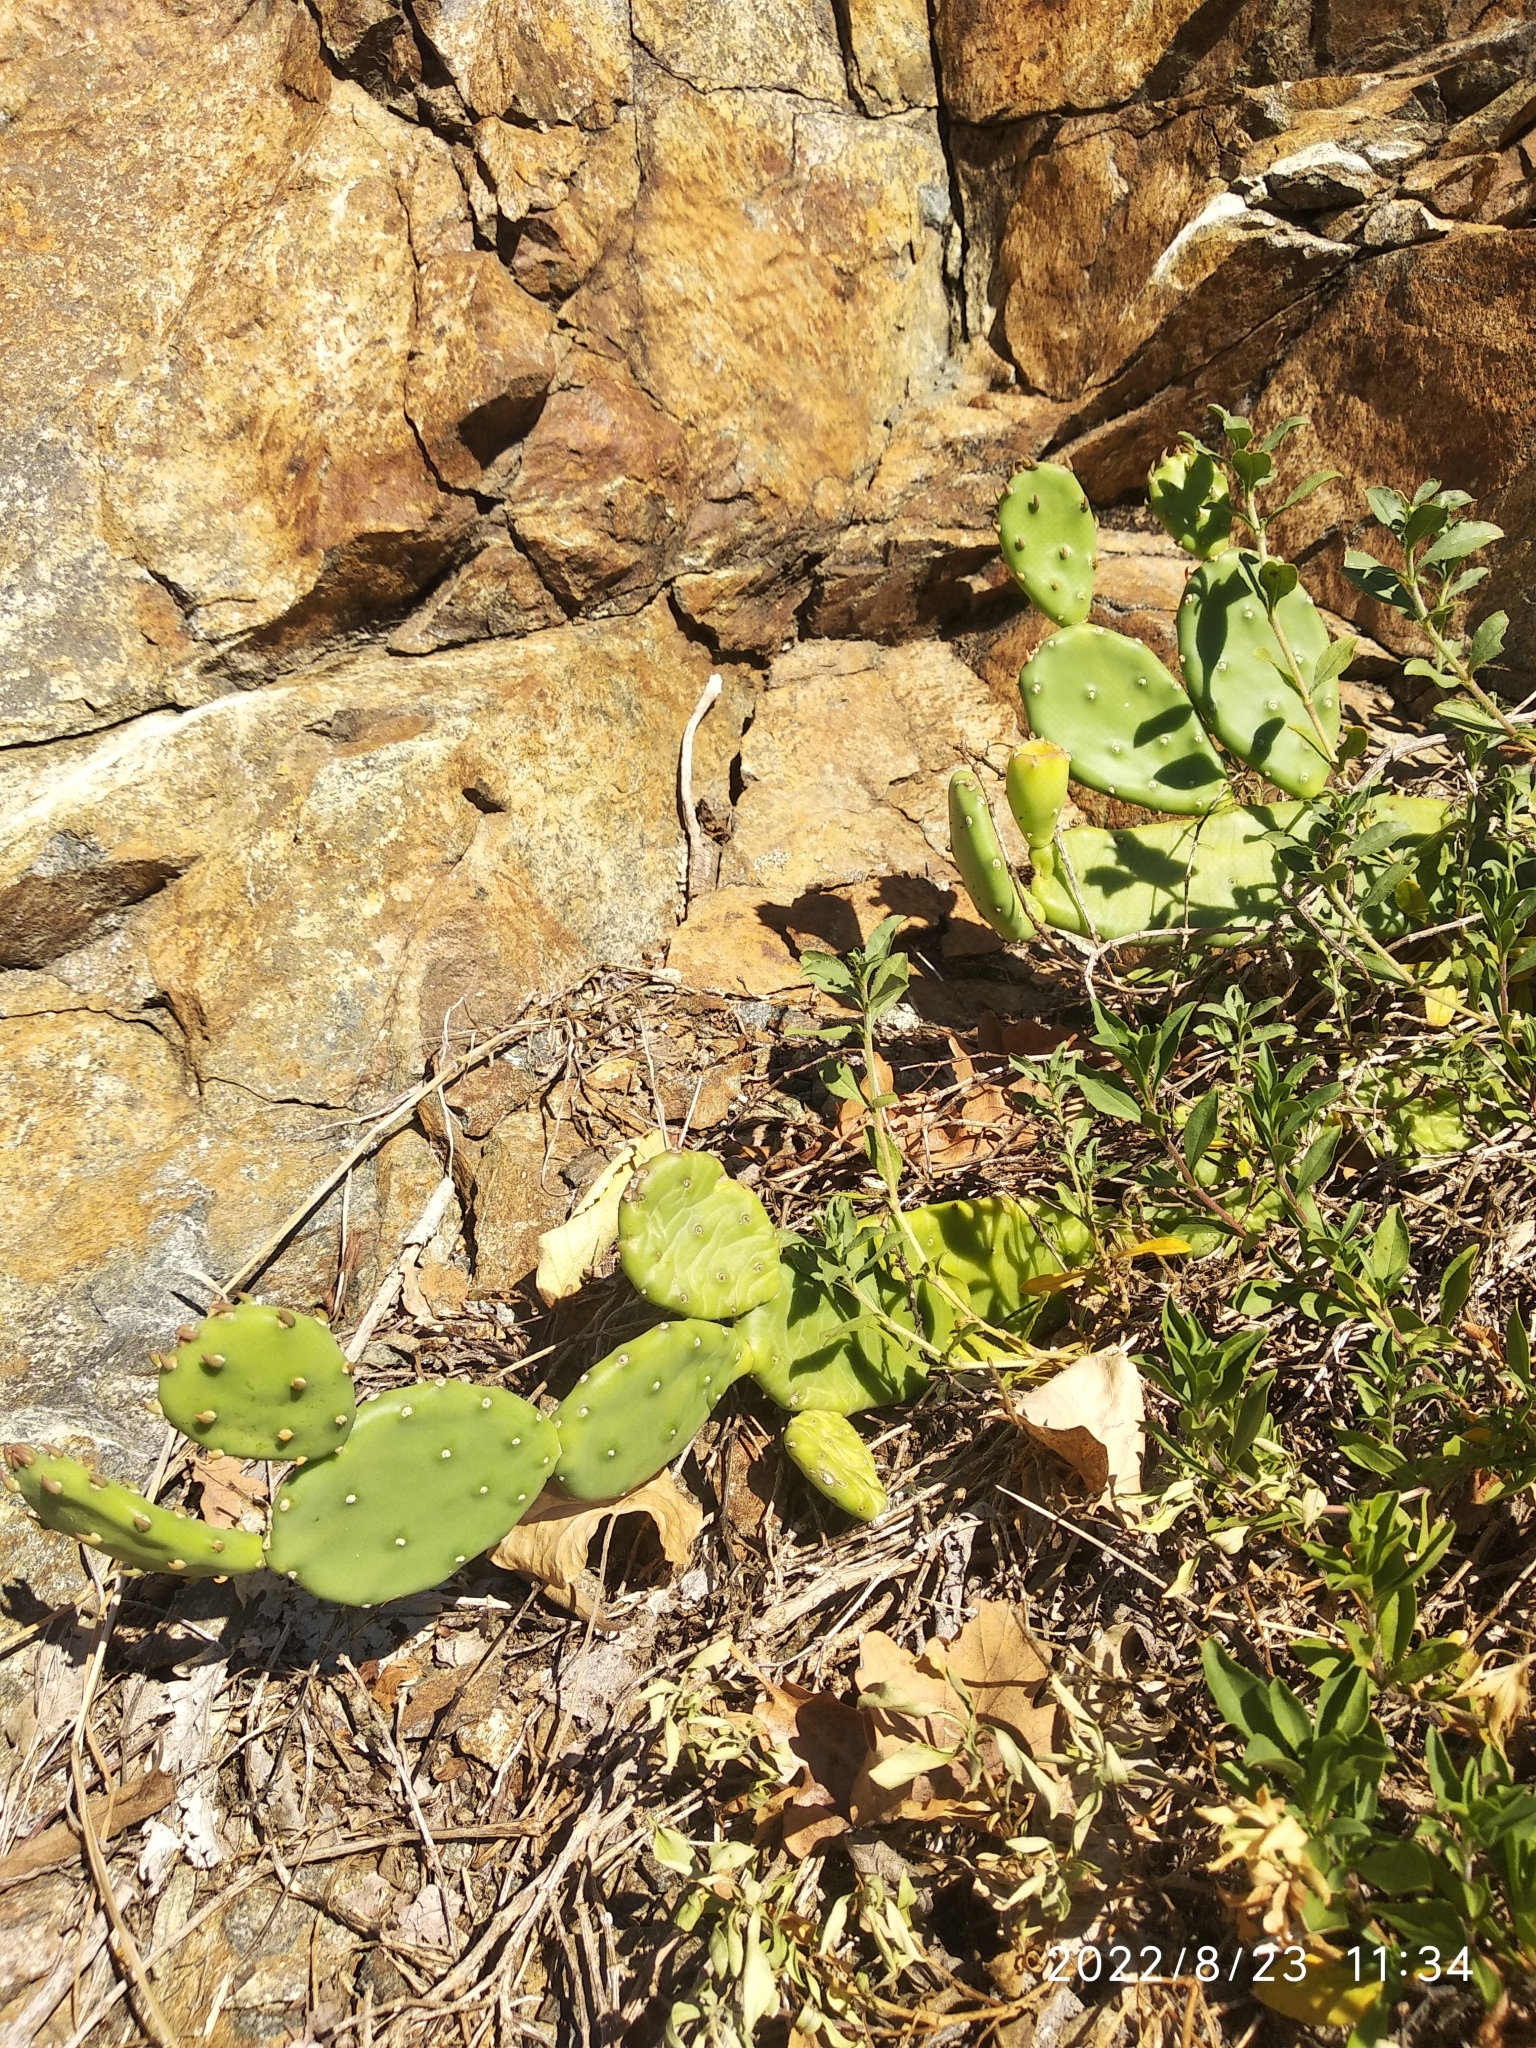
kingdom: Plantae
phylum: Tracheophyta
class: Magnoliopsida
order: Caryophyllales
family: Cactaceae
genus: Opuntia
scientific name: Opuntia humifusa
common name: Eastern prickly-pear
